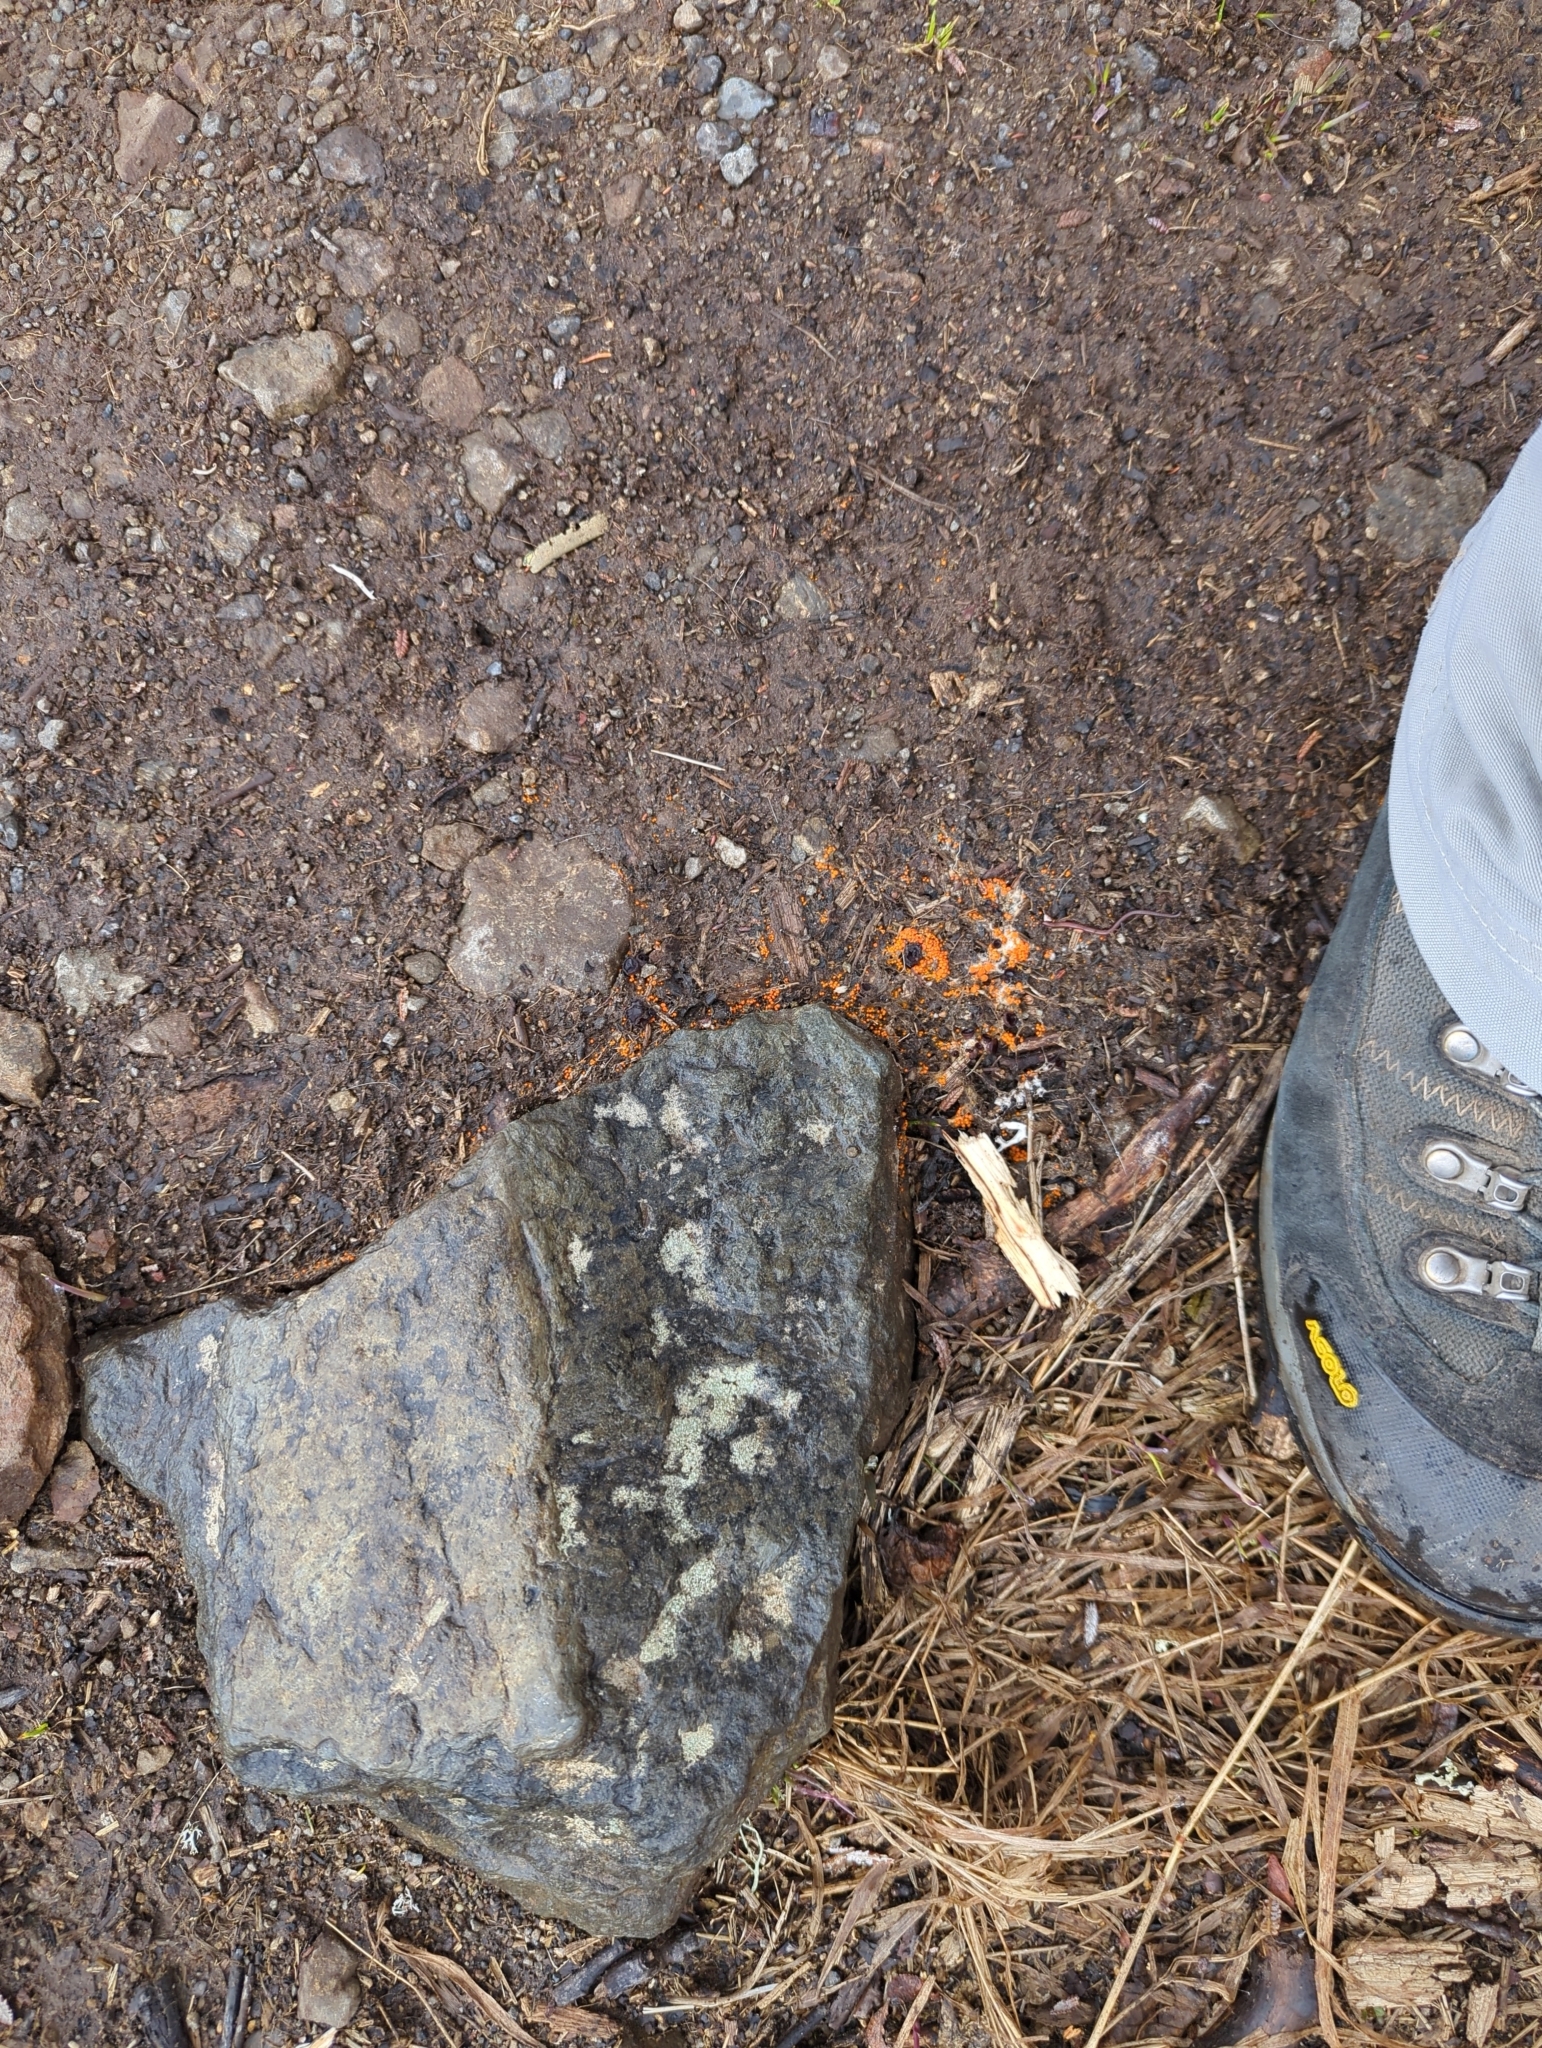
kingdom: Fungi
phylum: Ascomycota
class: Pezizomycetes
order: Pezizales
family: Pyronemataceae
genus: Byssonectria
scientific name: Byssonectria terrestris
